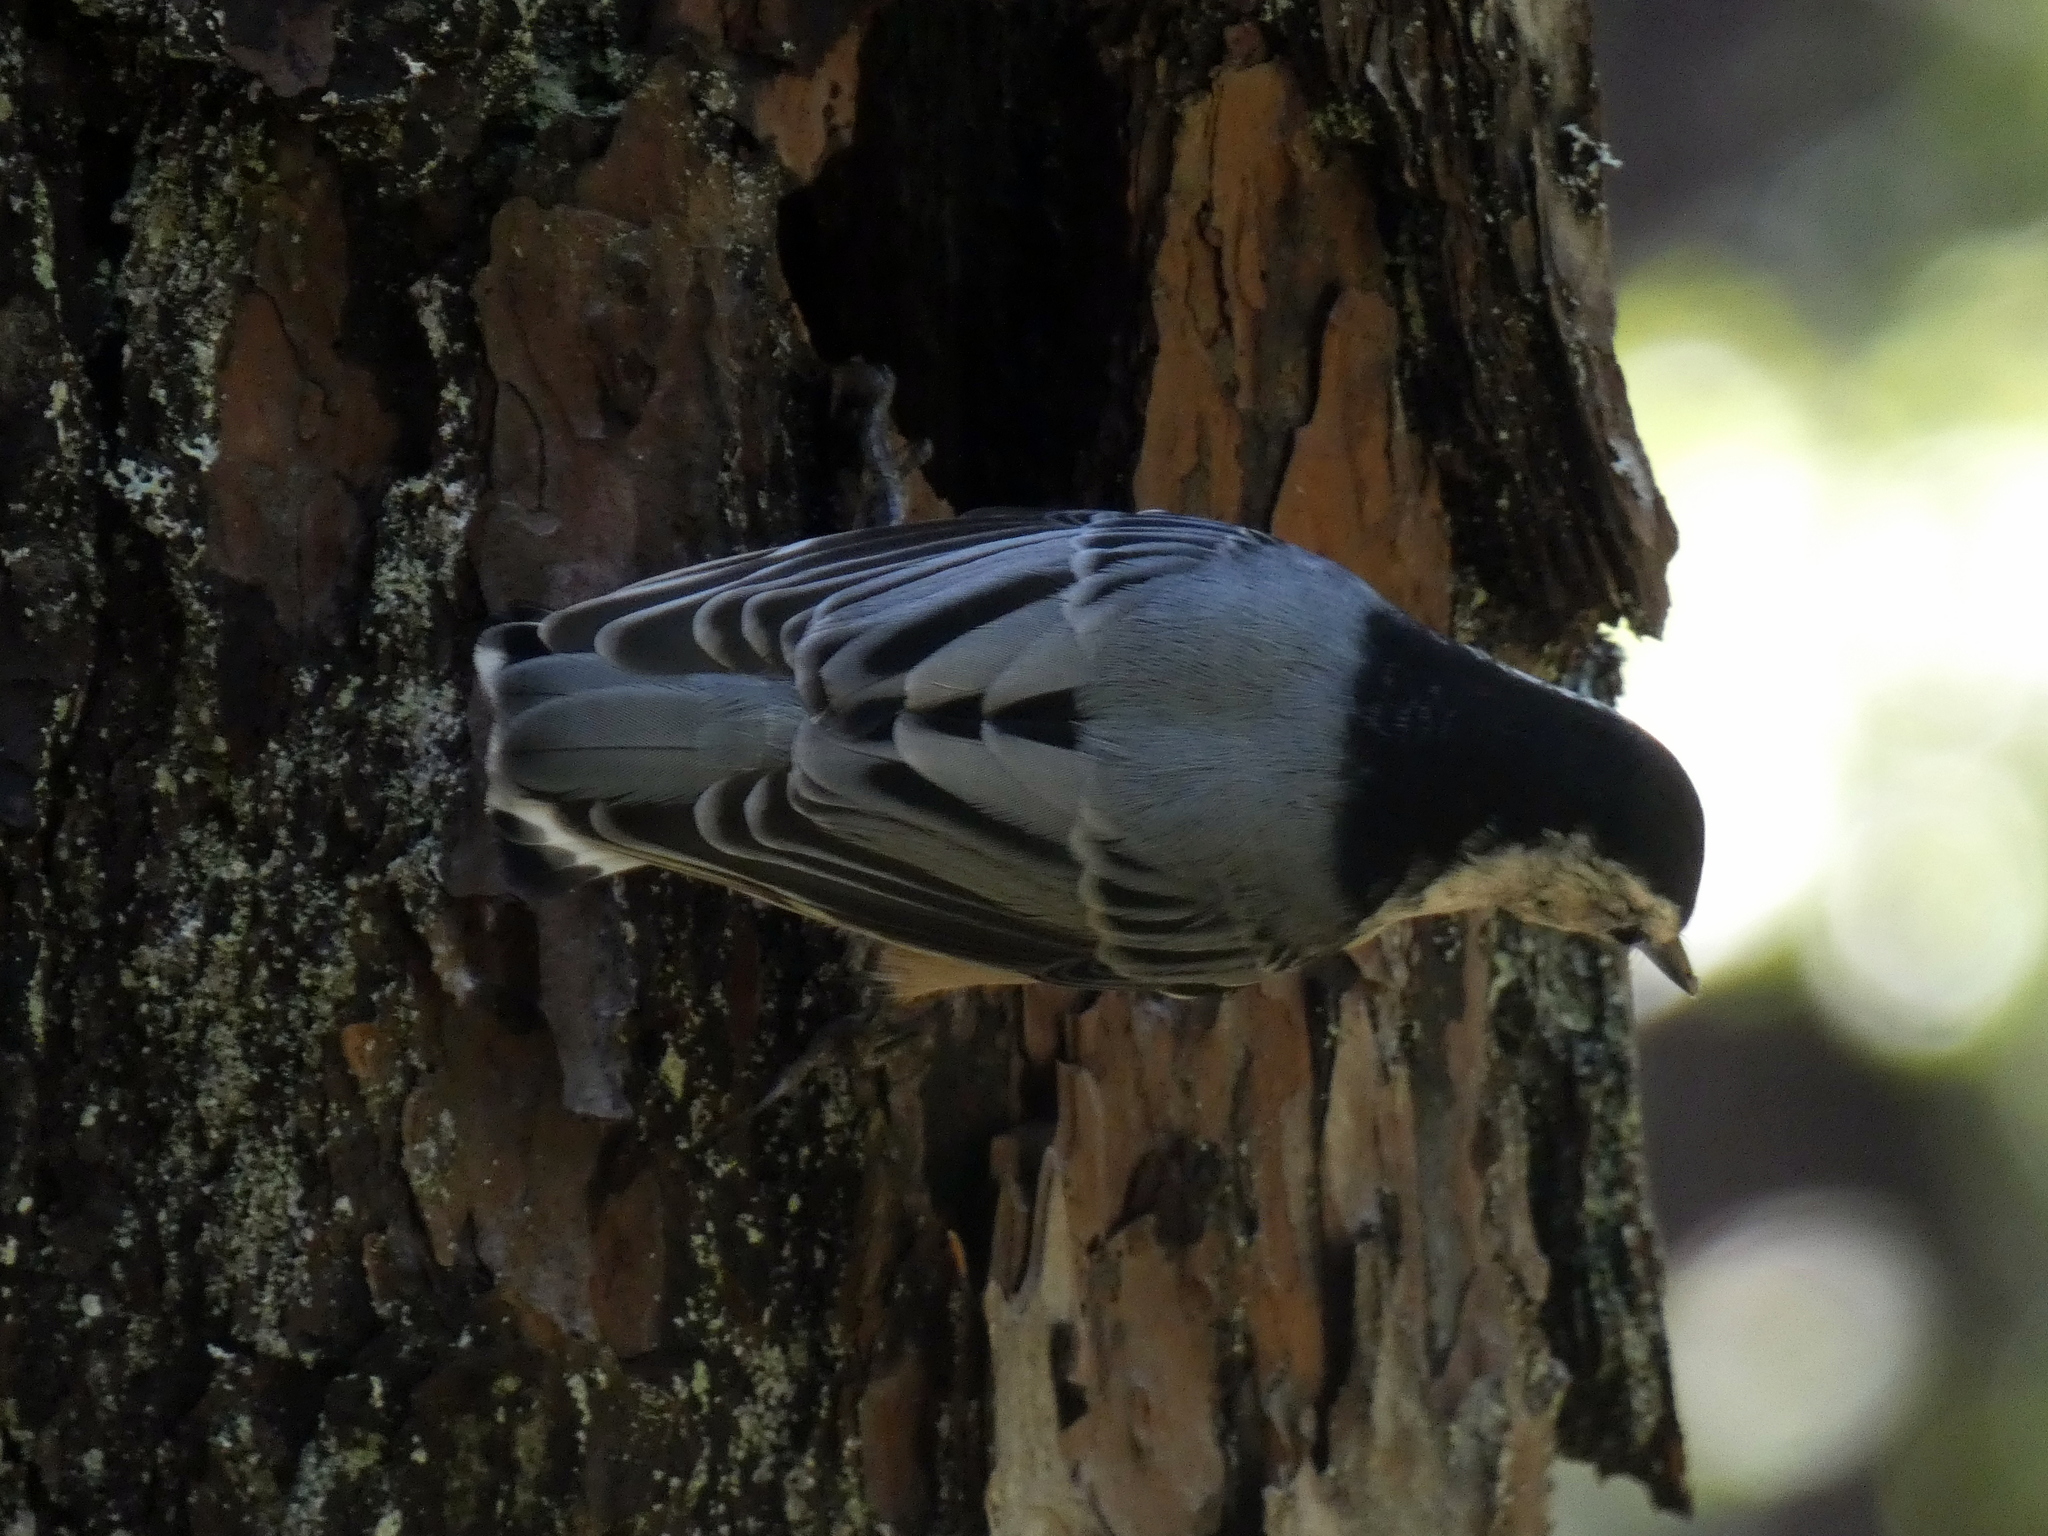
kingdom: Animalia
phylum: Chordata
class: Aves
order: Passeriformes
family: Sittidae
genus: Sitta
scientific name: Sitta carolinensis
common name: White-breasted nuthatch
